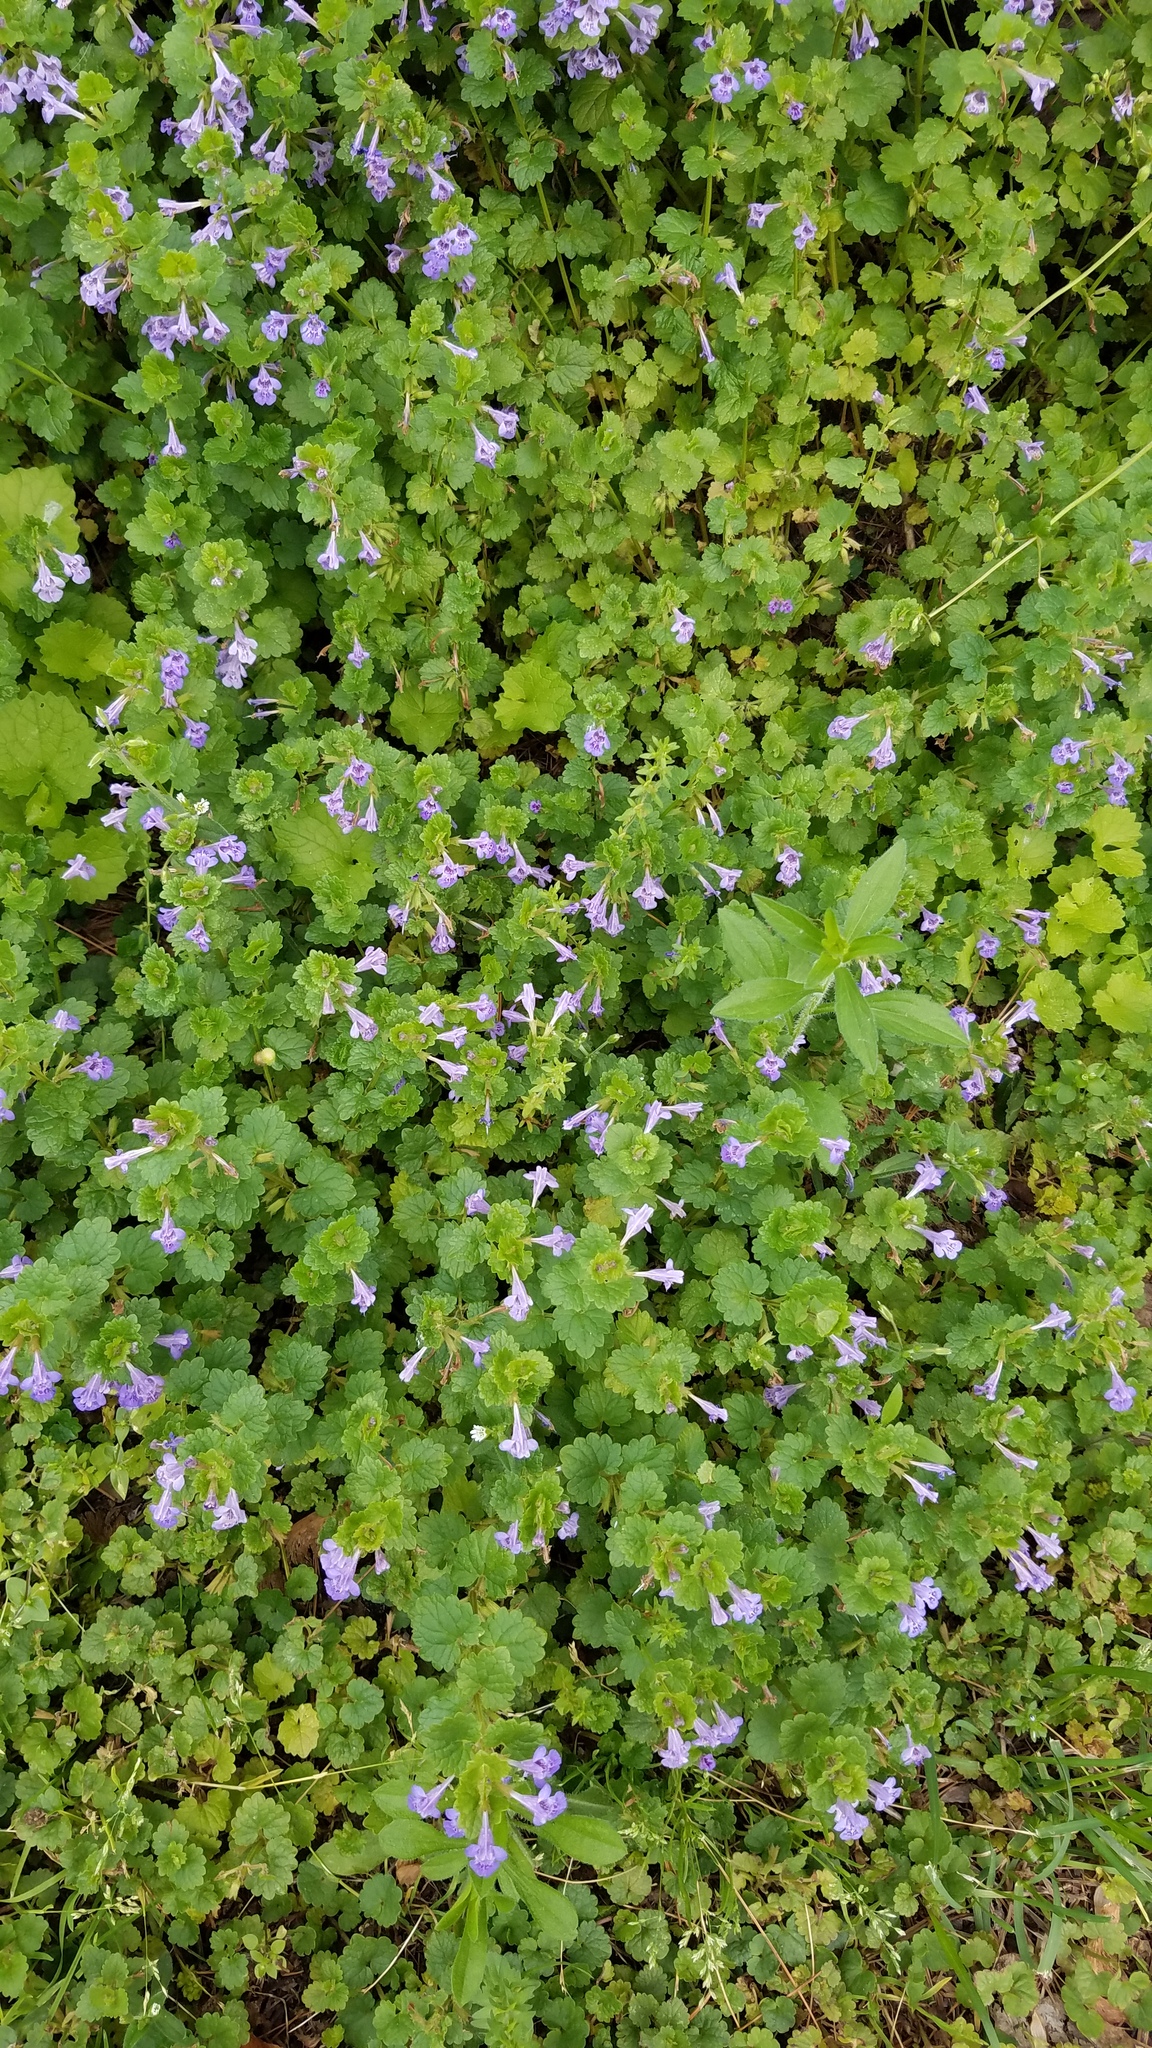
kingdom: Plantae
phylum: Tracheophyta
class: Magnoliopsida
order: Lamiales
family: Lamiaceae
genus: Glechoma
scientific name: Glechoma hederacea
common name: Ground ivy
